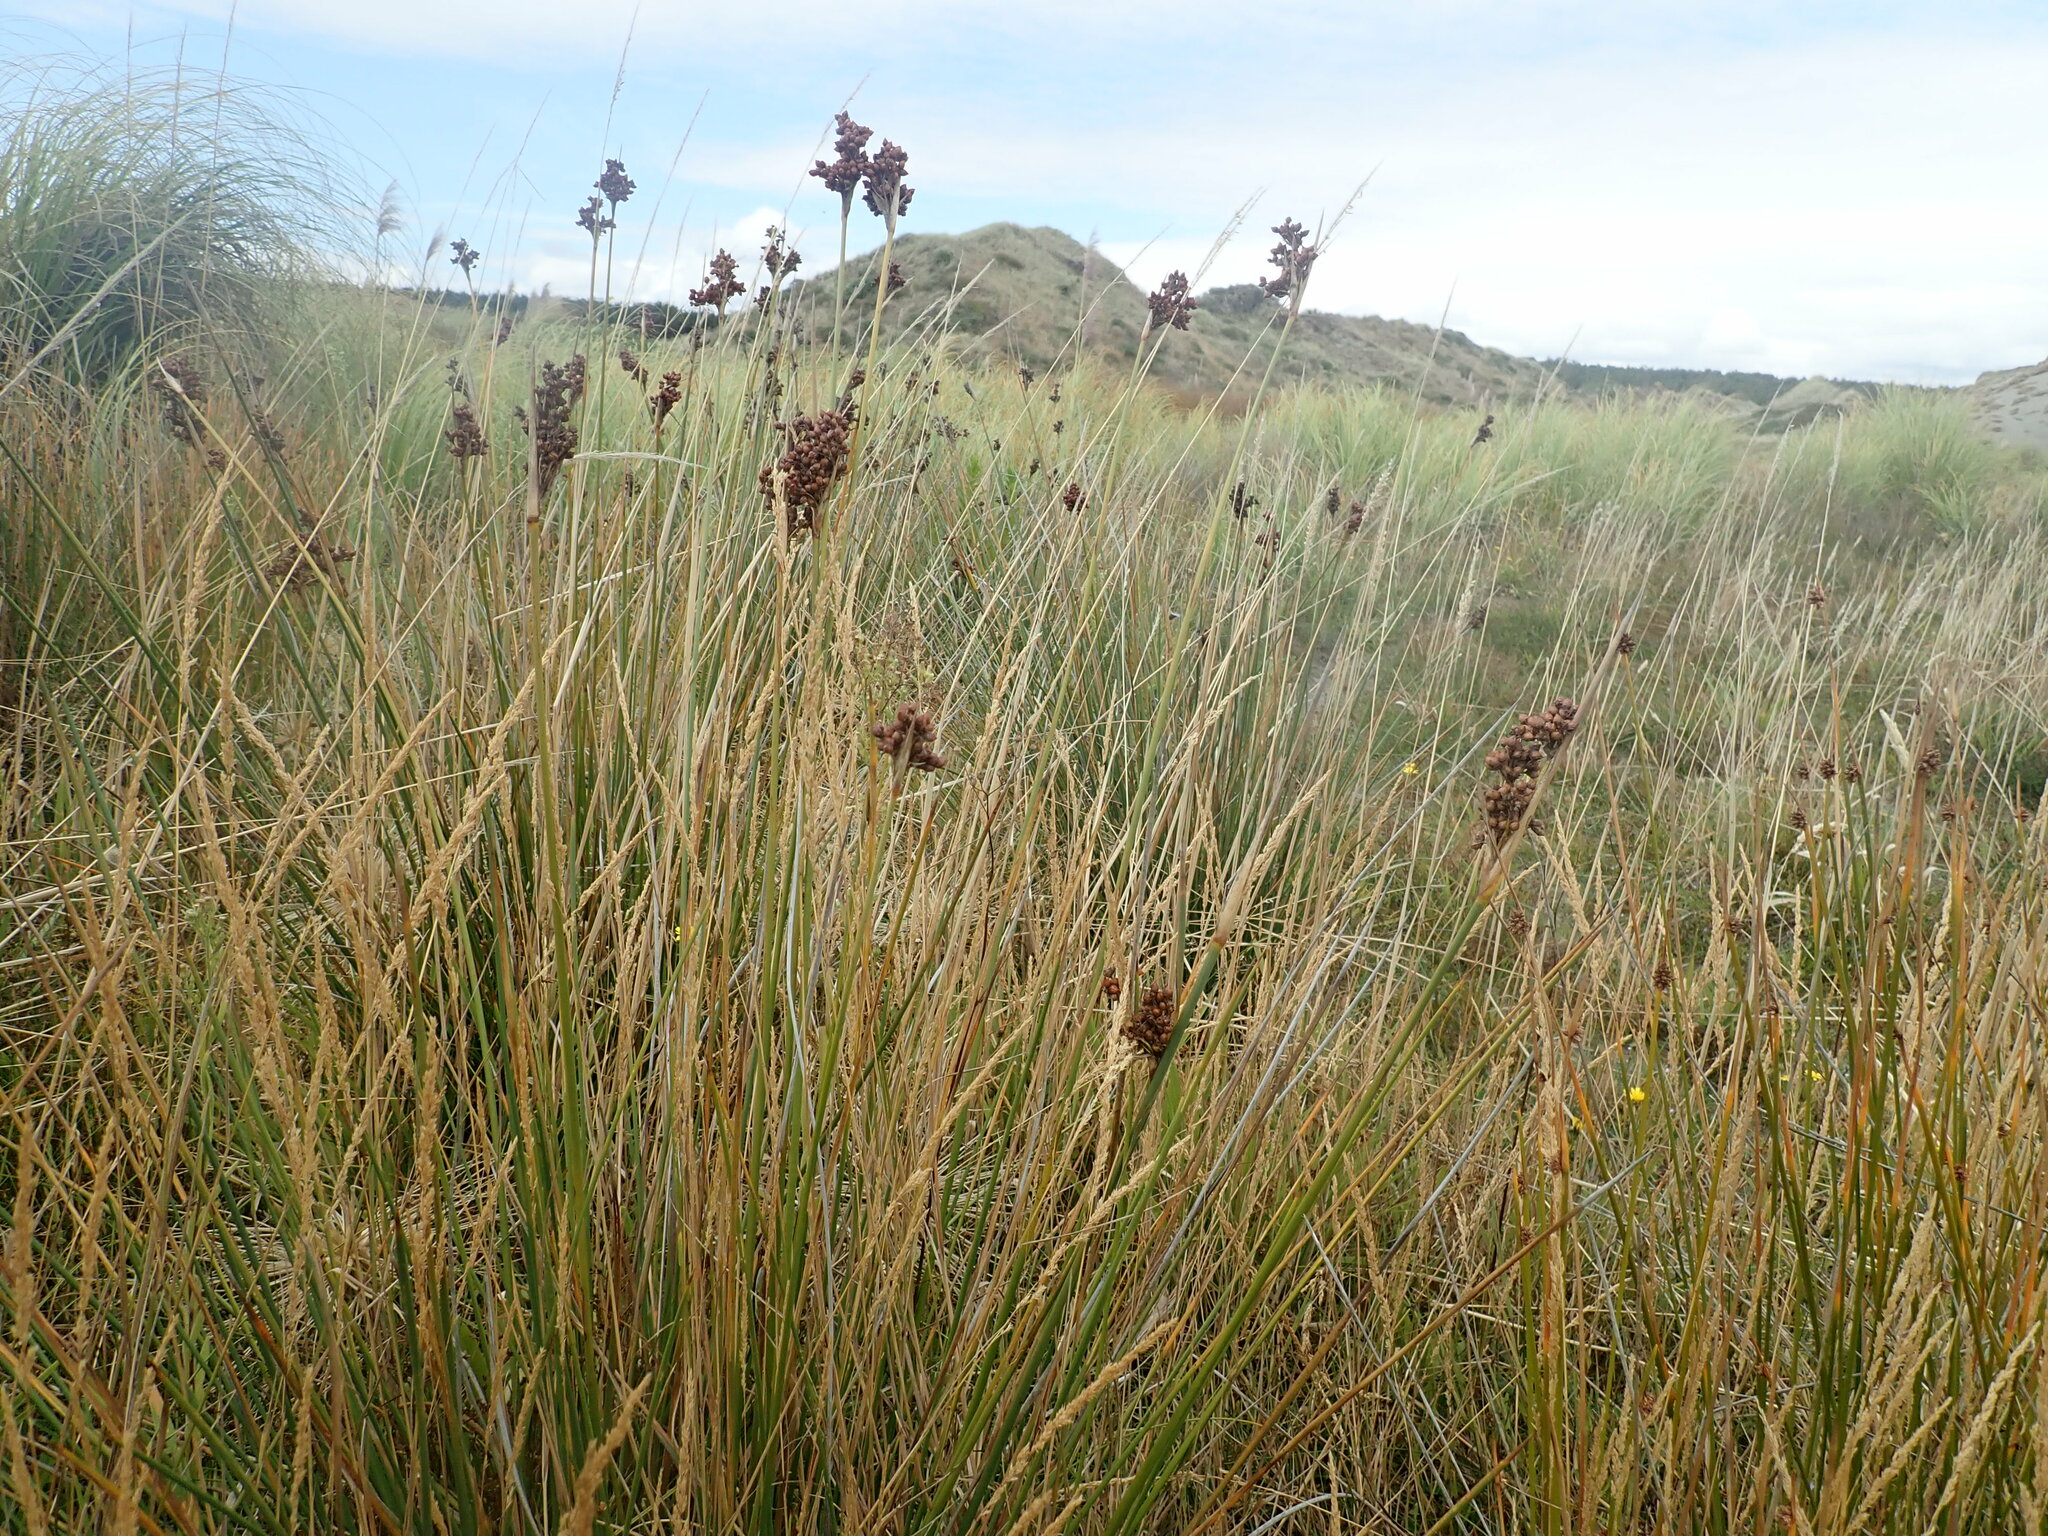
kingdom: Plantae
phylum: Tracheophyta
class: Liliopsida
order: Poales
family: Juncaceae
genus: Juncus
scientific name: Juncus acutus
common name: Sharp rush
